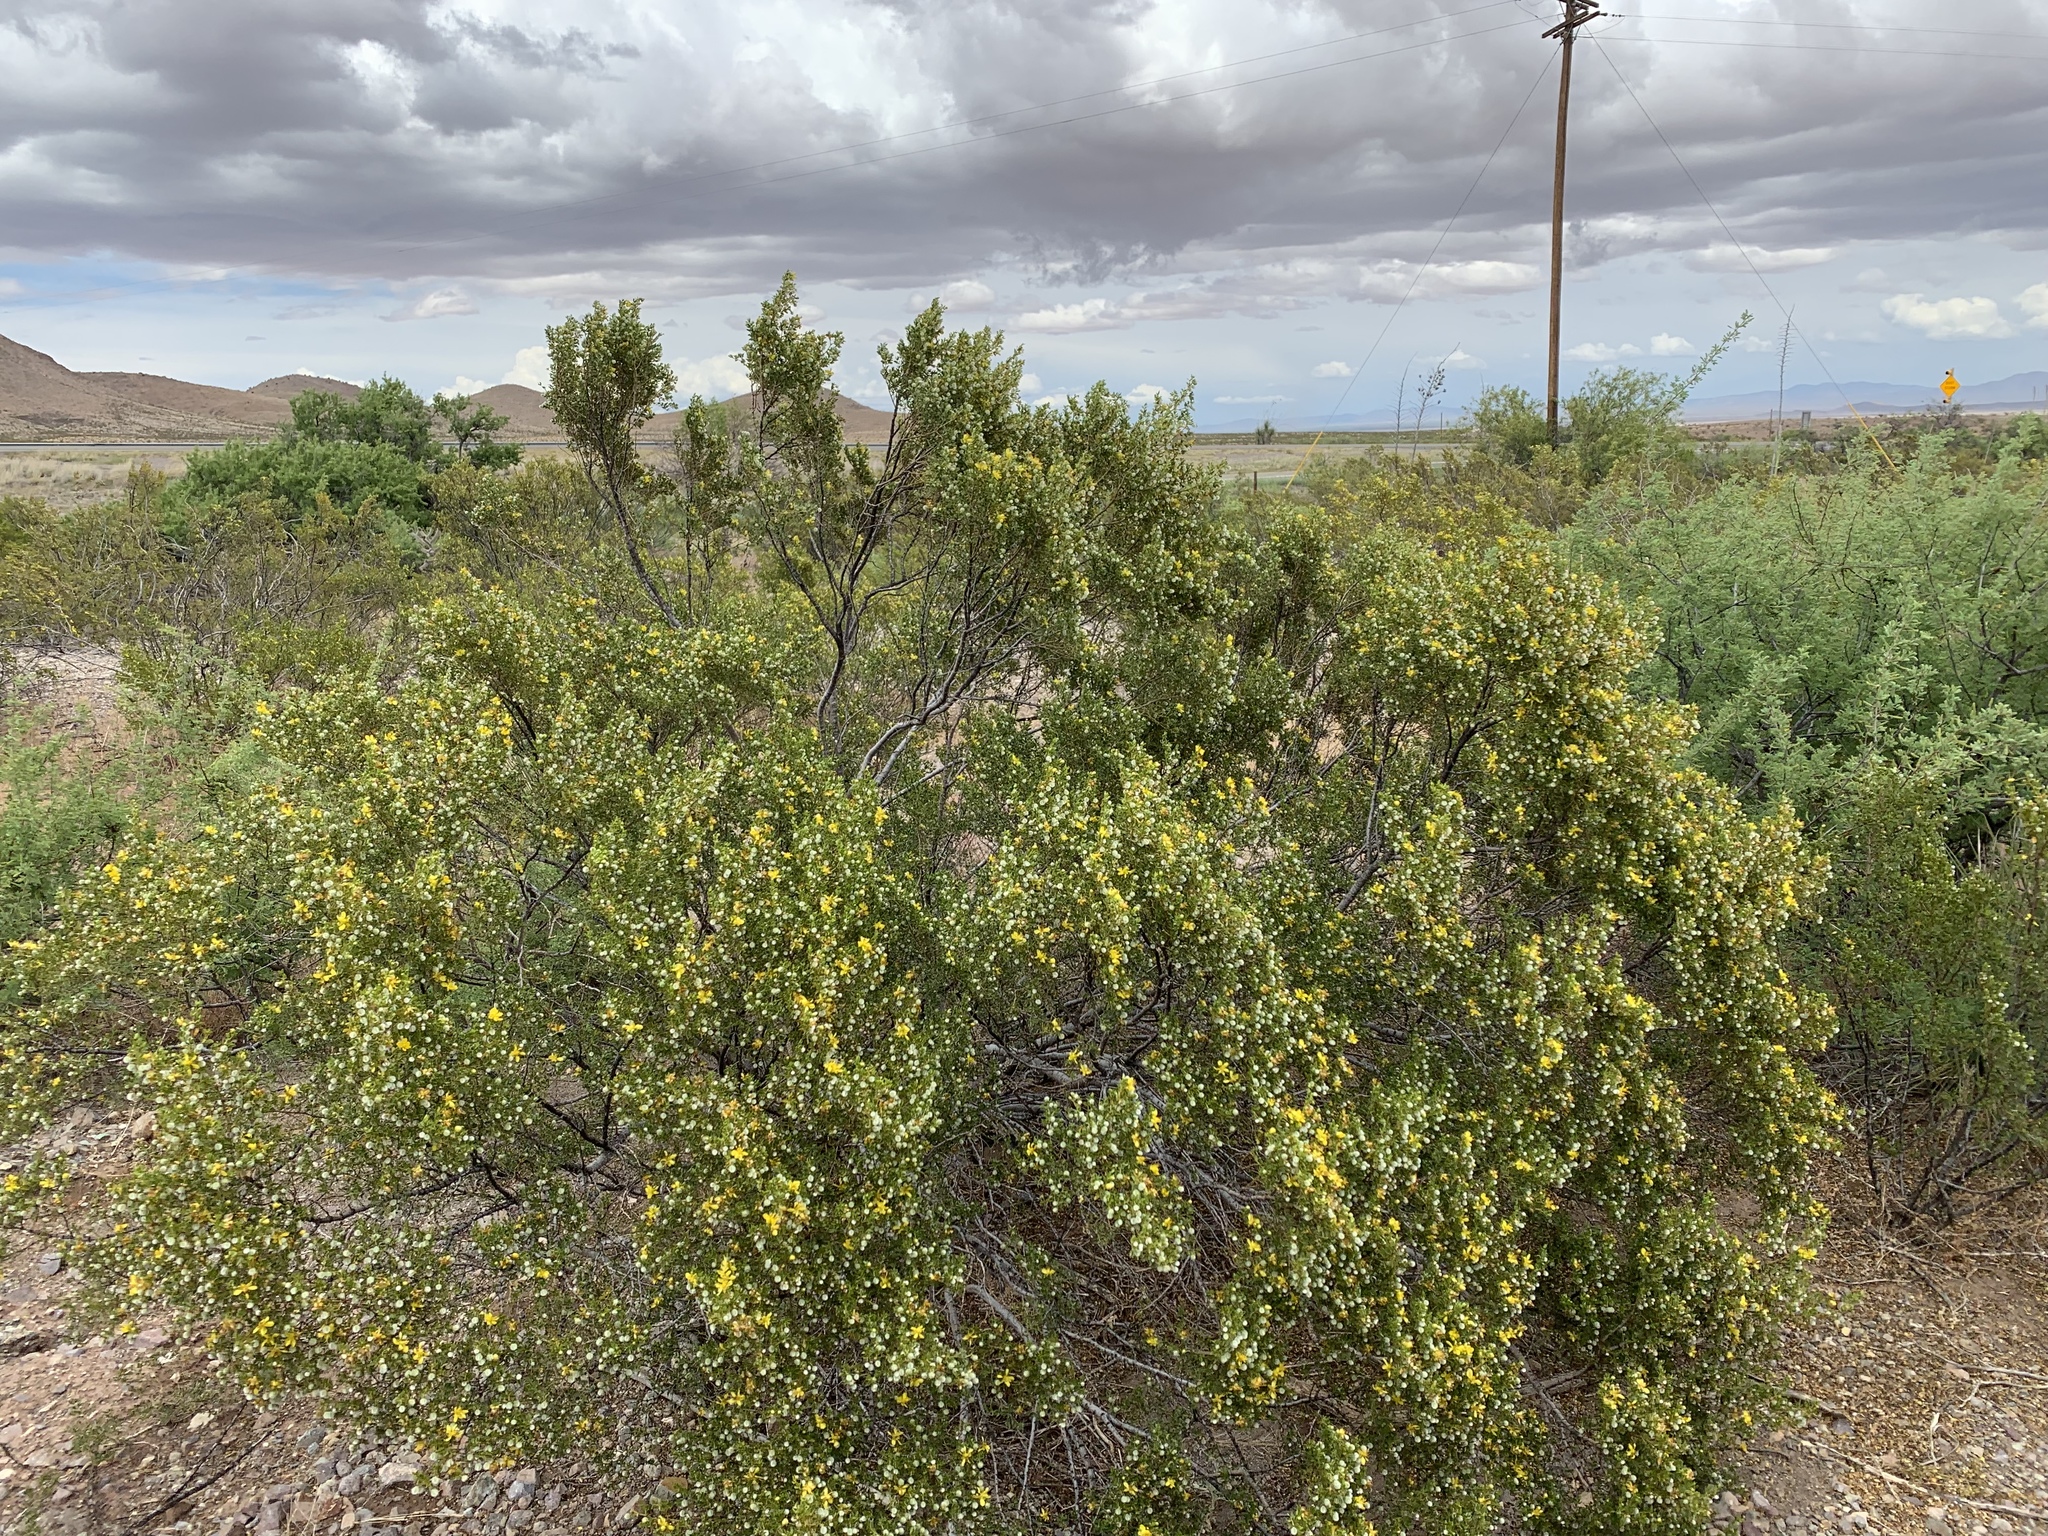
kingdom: Plantae
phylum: Tracheophyta
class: Magnoliopsida
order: Zygophyllales
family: Zygophyllaceae
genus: Larrea
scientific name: Larrea tridentata
